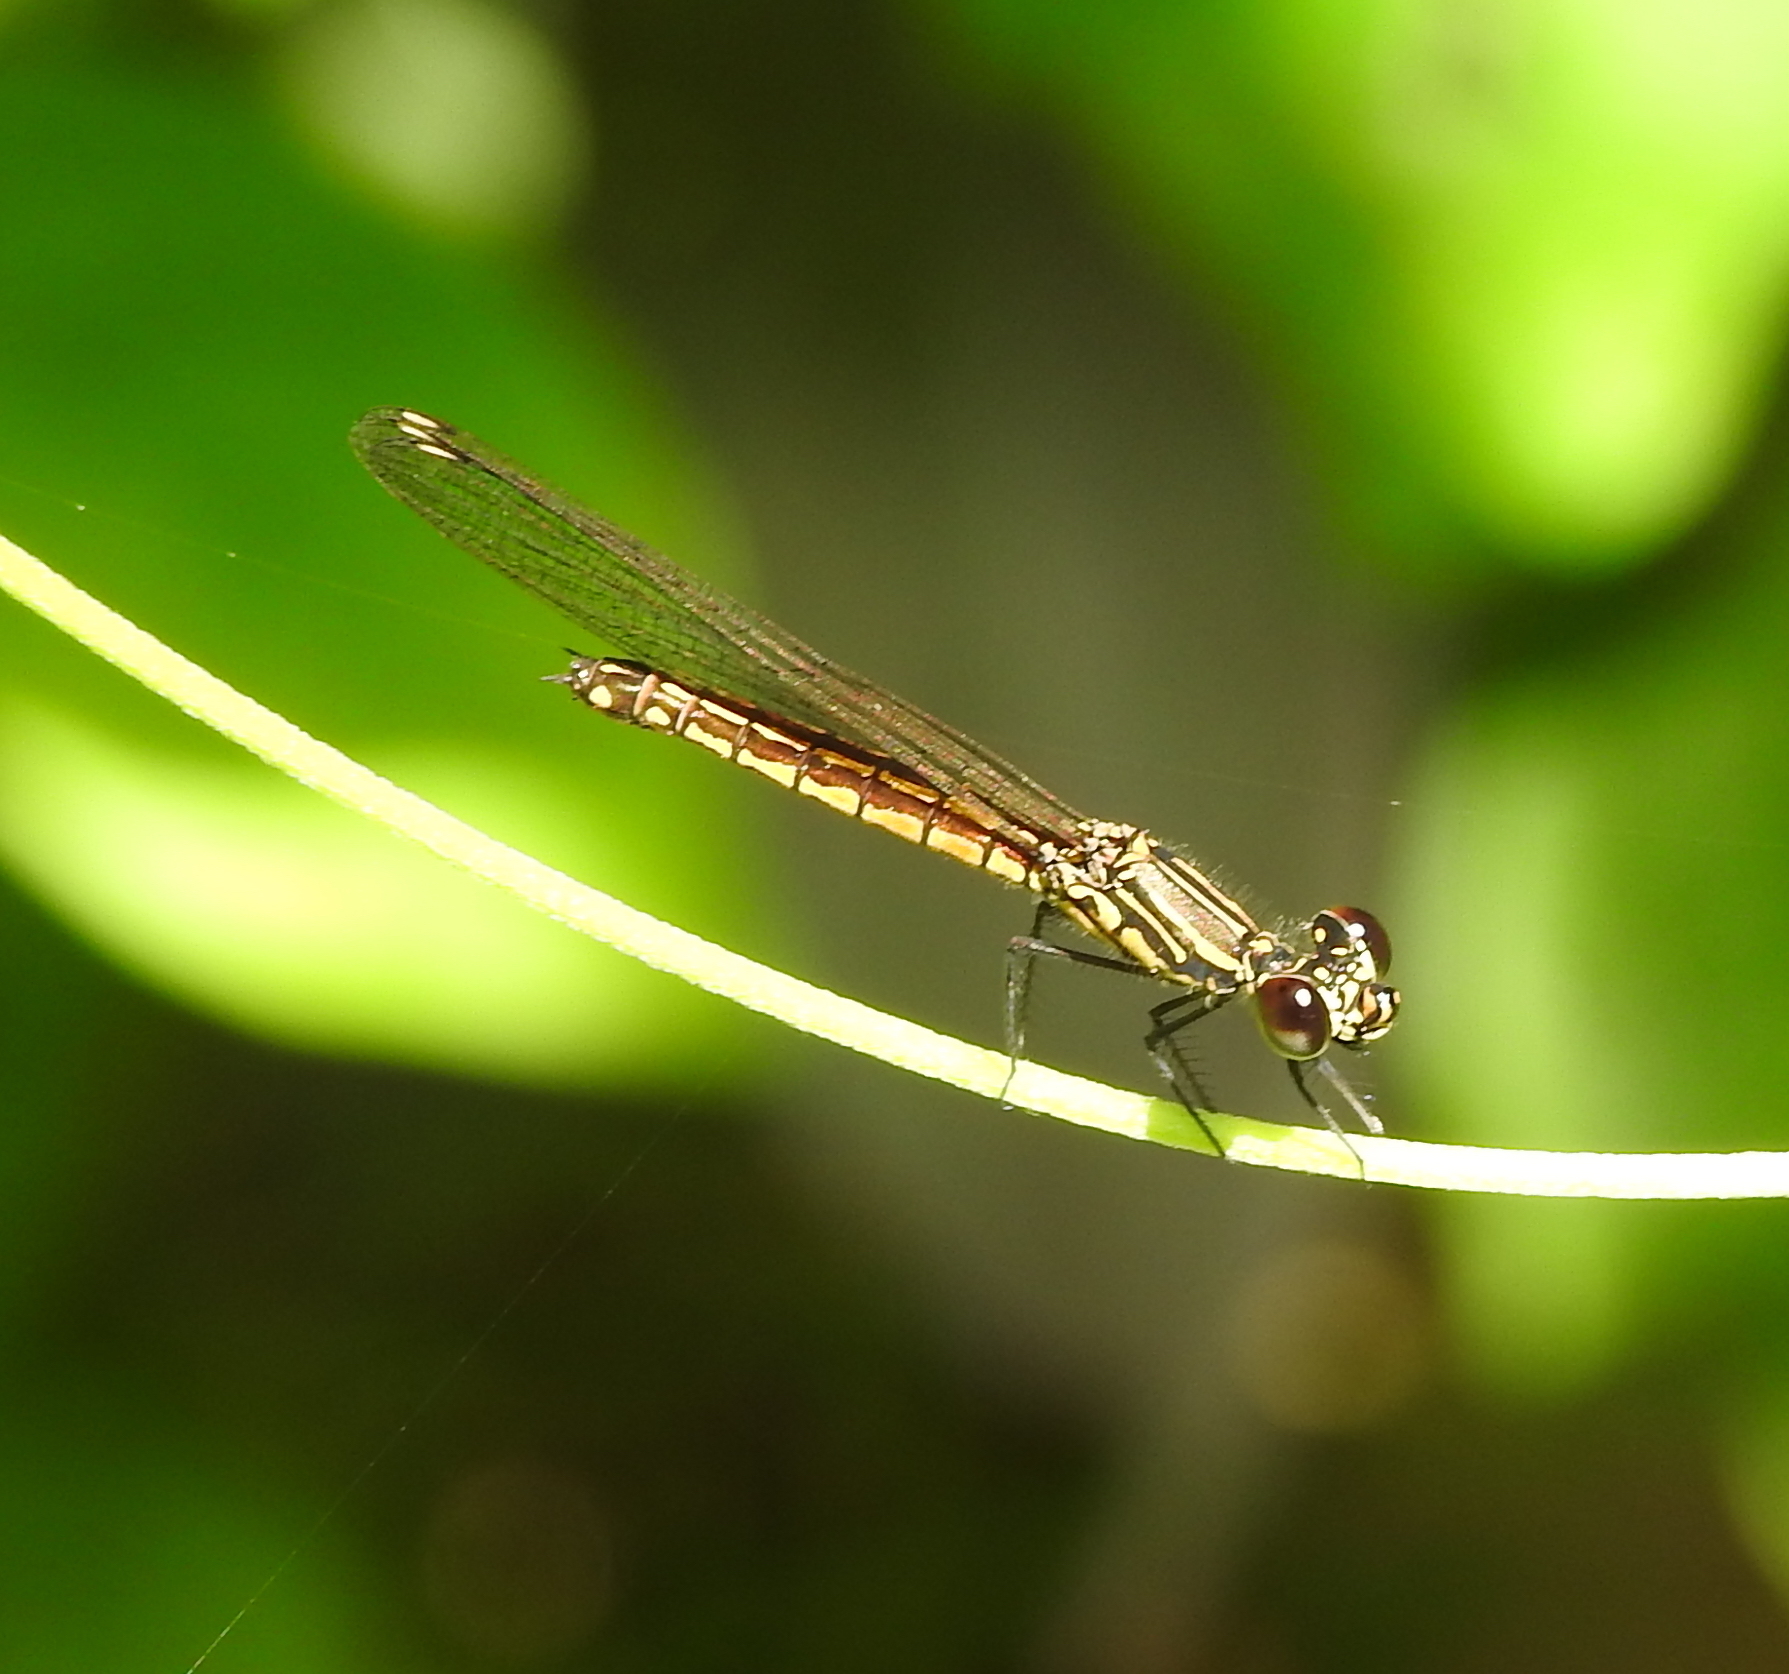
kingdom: Animalia
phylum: Arthropoda
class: Insecta
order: Odonata
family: Chlorocyphidae
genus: Libellago
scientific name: Libellago lineata
